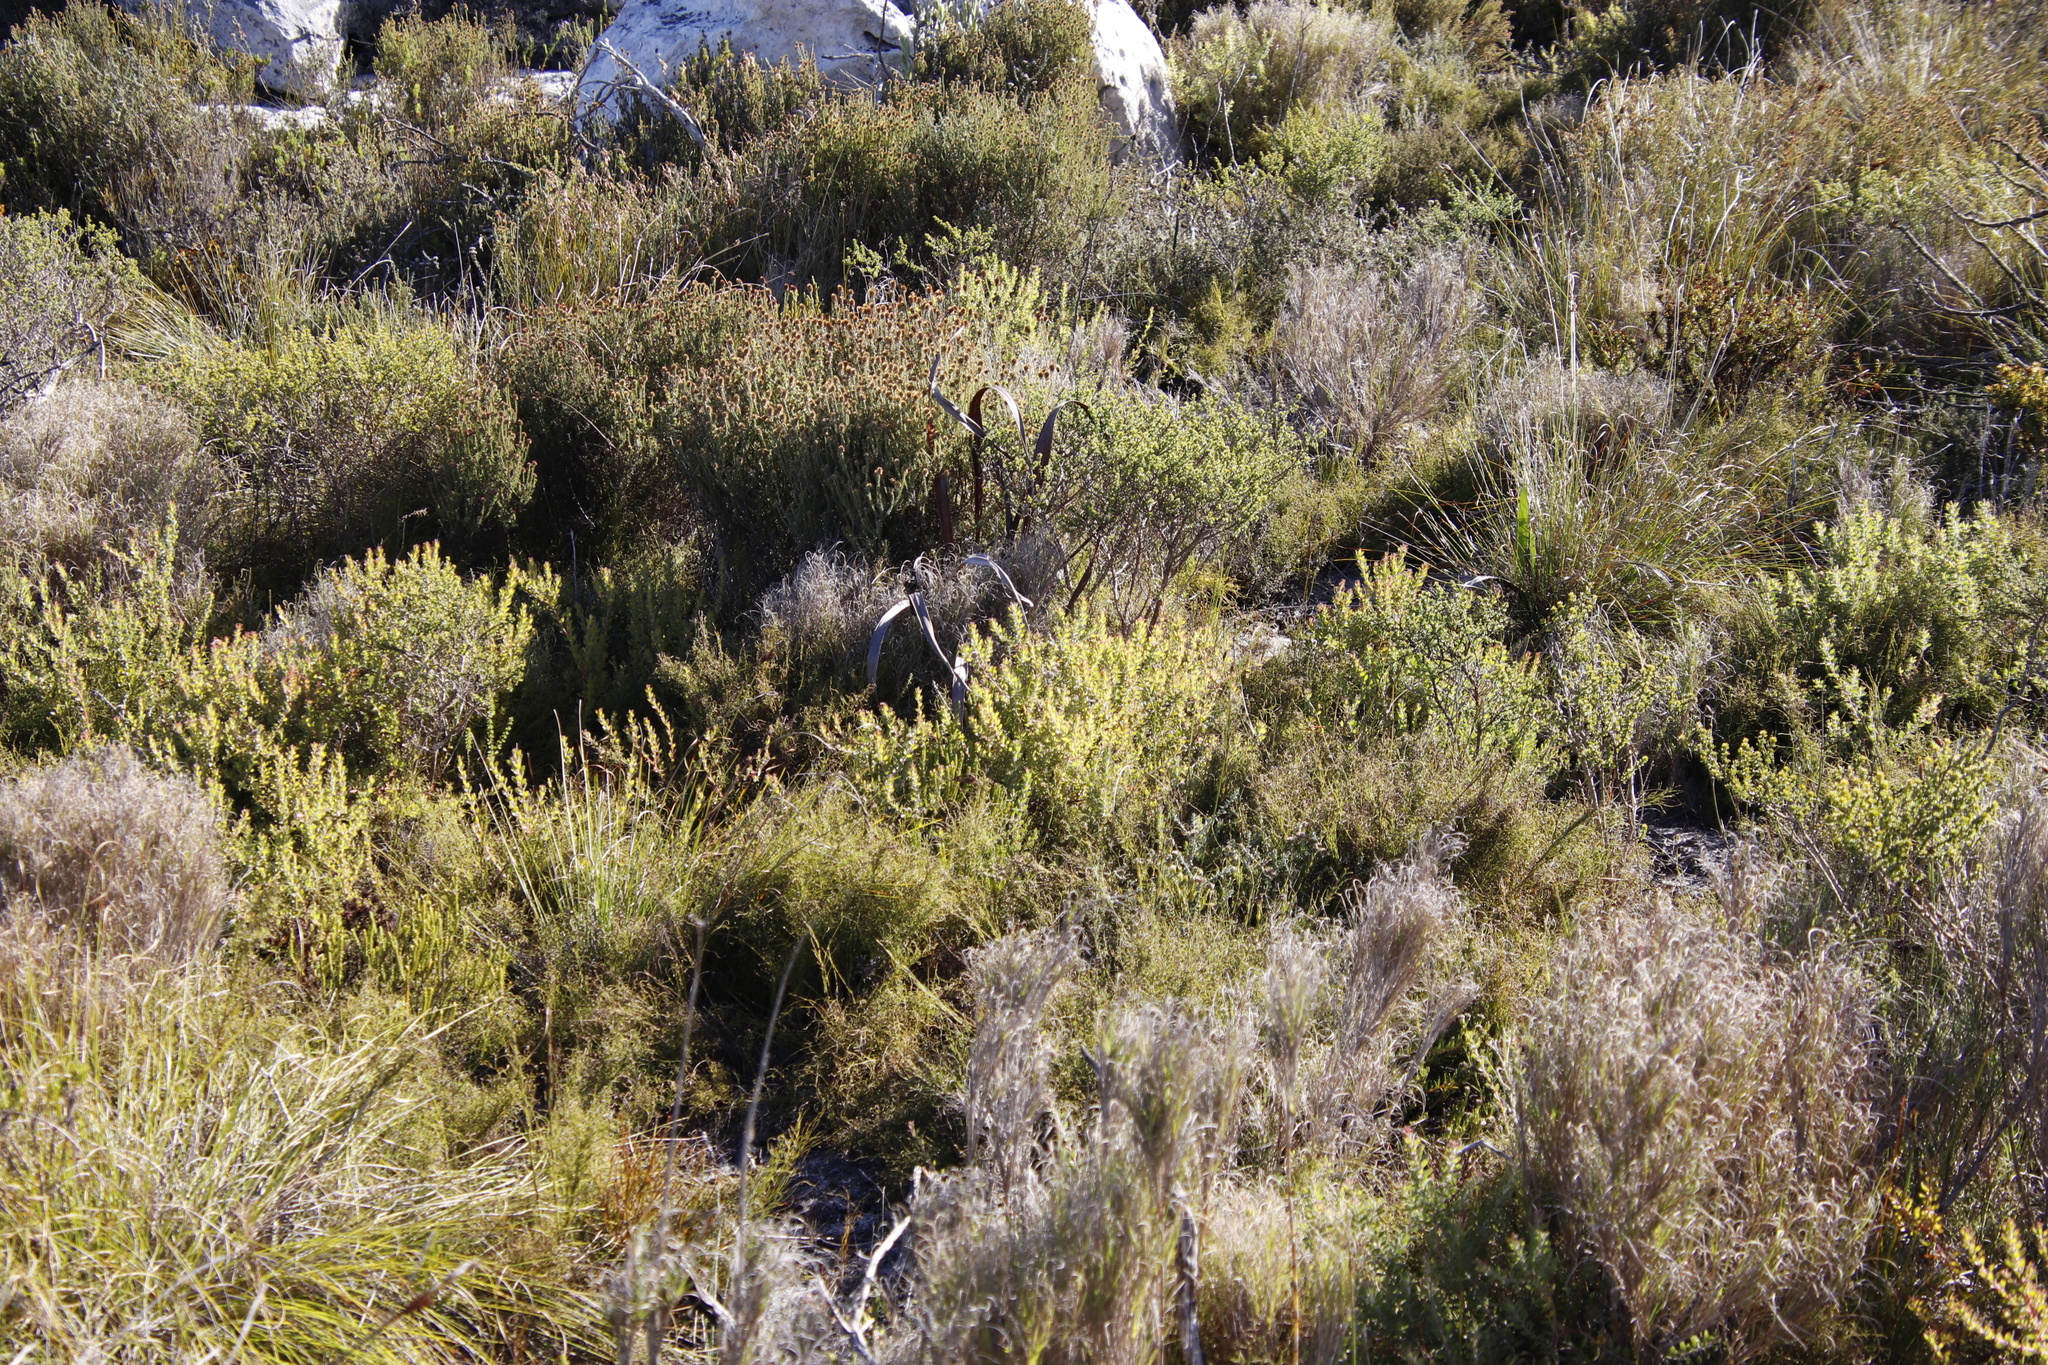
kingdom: Plantae
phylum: Tracheophyta
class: Magnoliopsida
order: Proteales
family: Proteaceae
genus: Diastella
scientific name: Diastella divaricata
